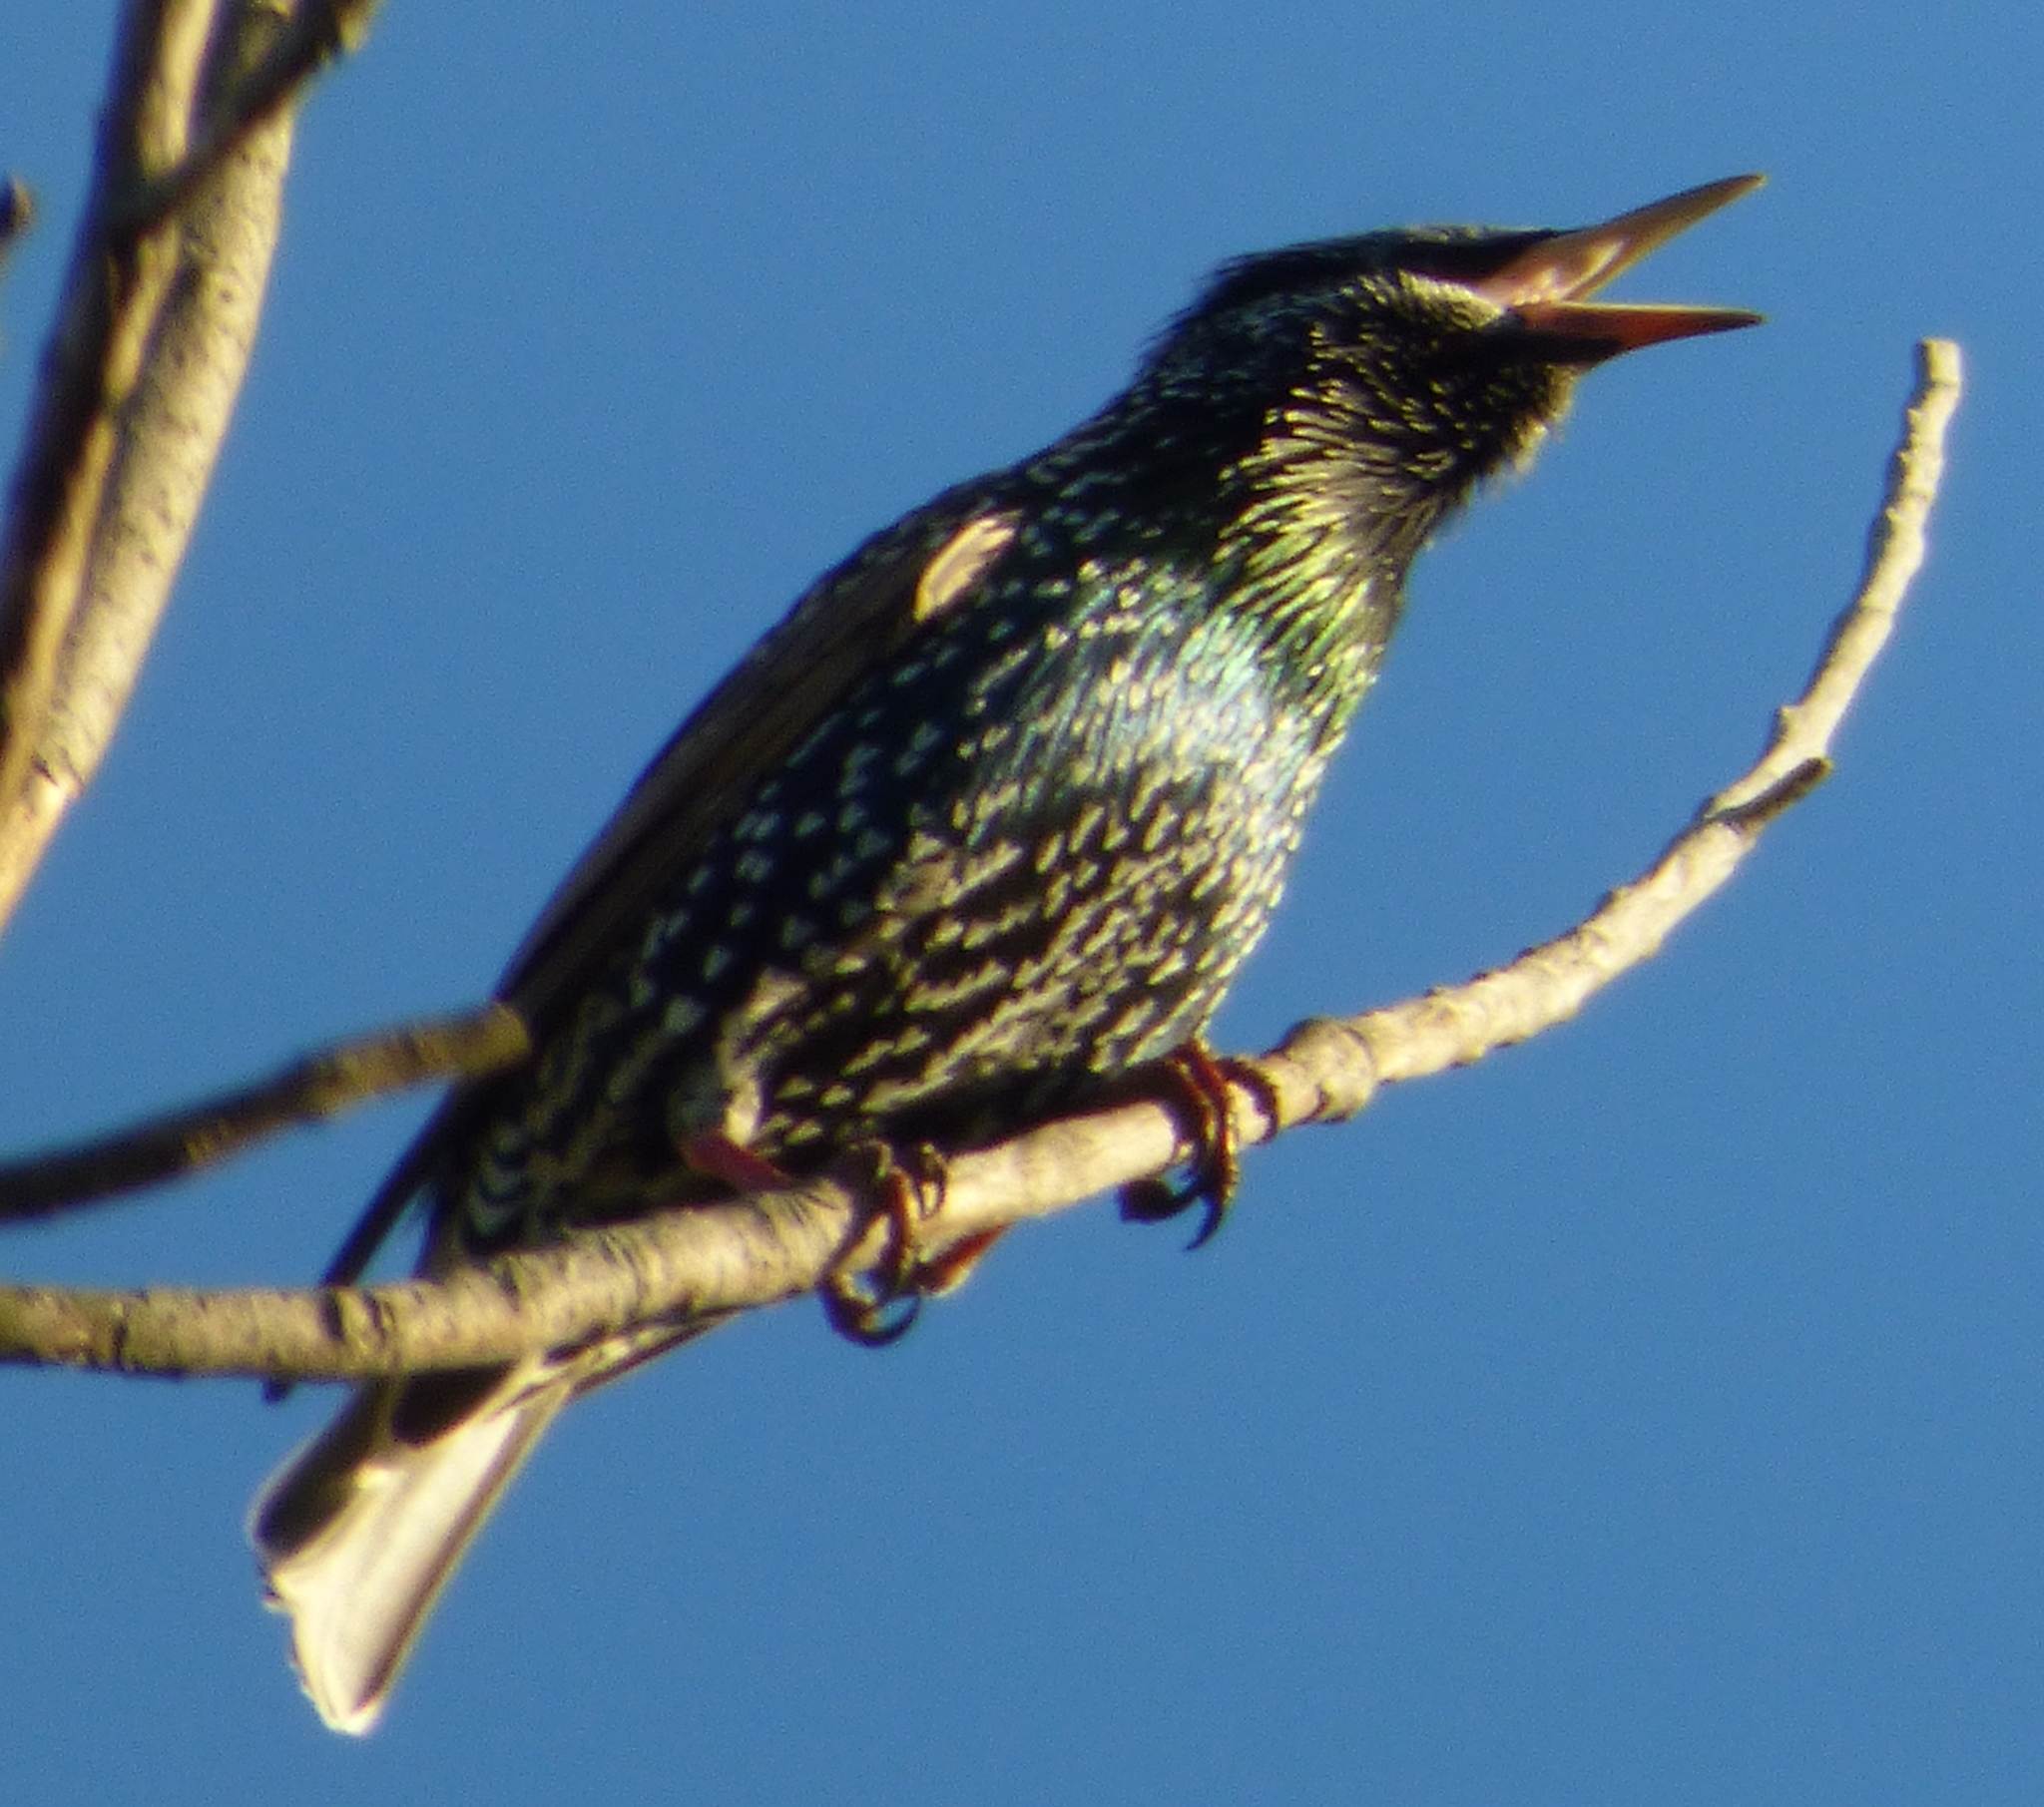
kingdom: Animalia
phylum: Chordata
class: Aves
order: Passeriformes
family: Sturnidae
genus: Sturnus
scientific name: Sturnus vulgaris
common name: Common starling
